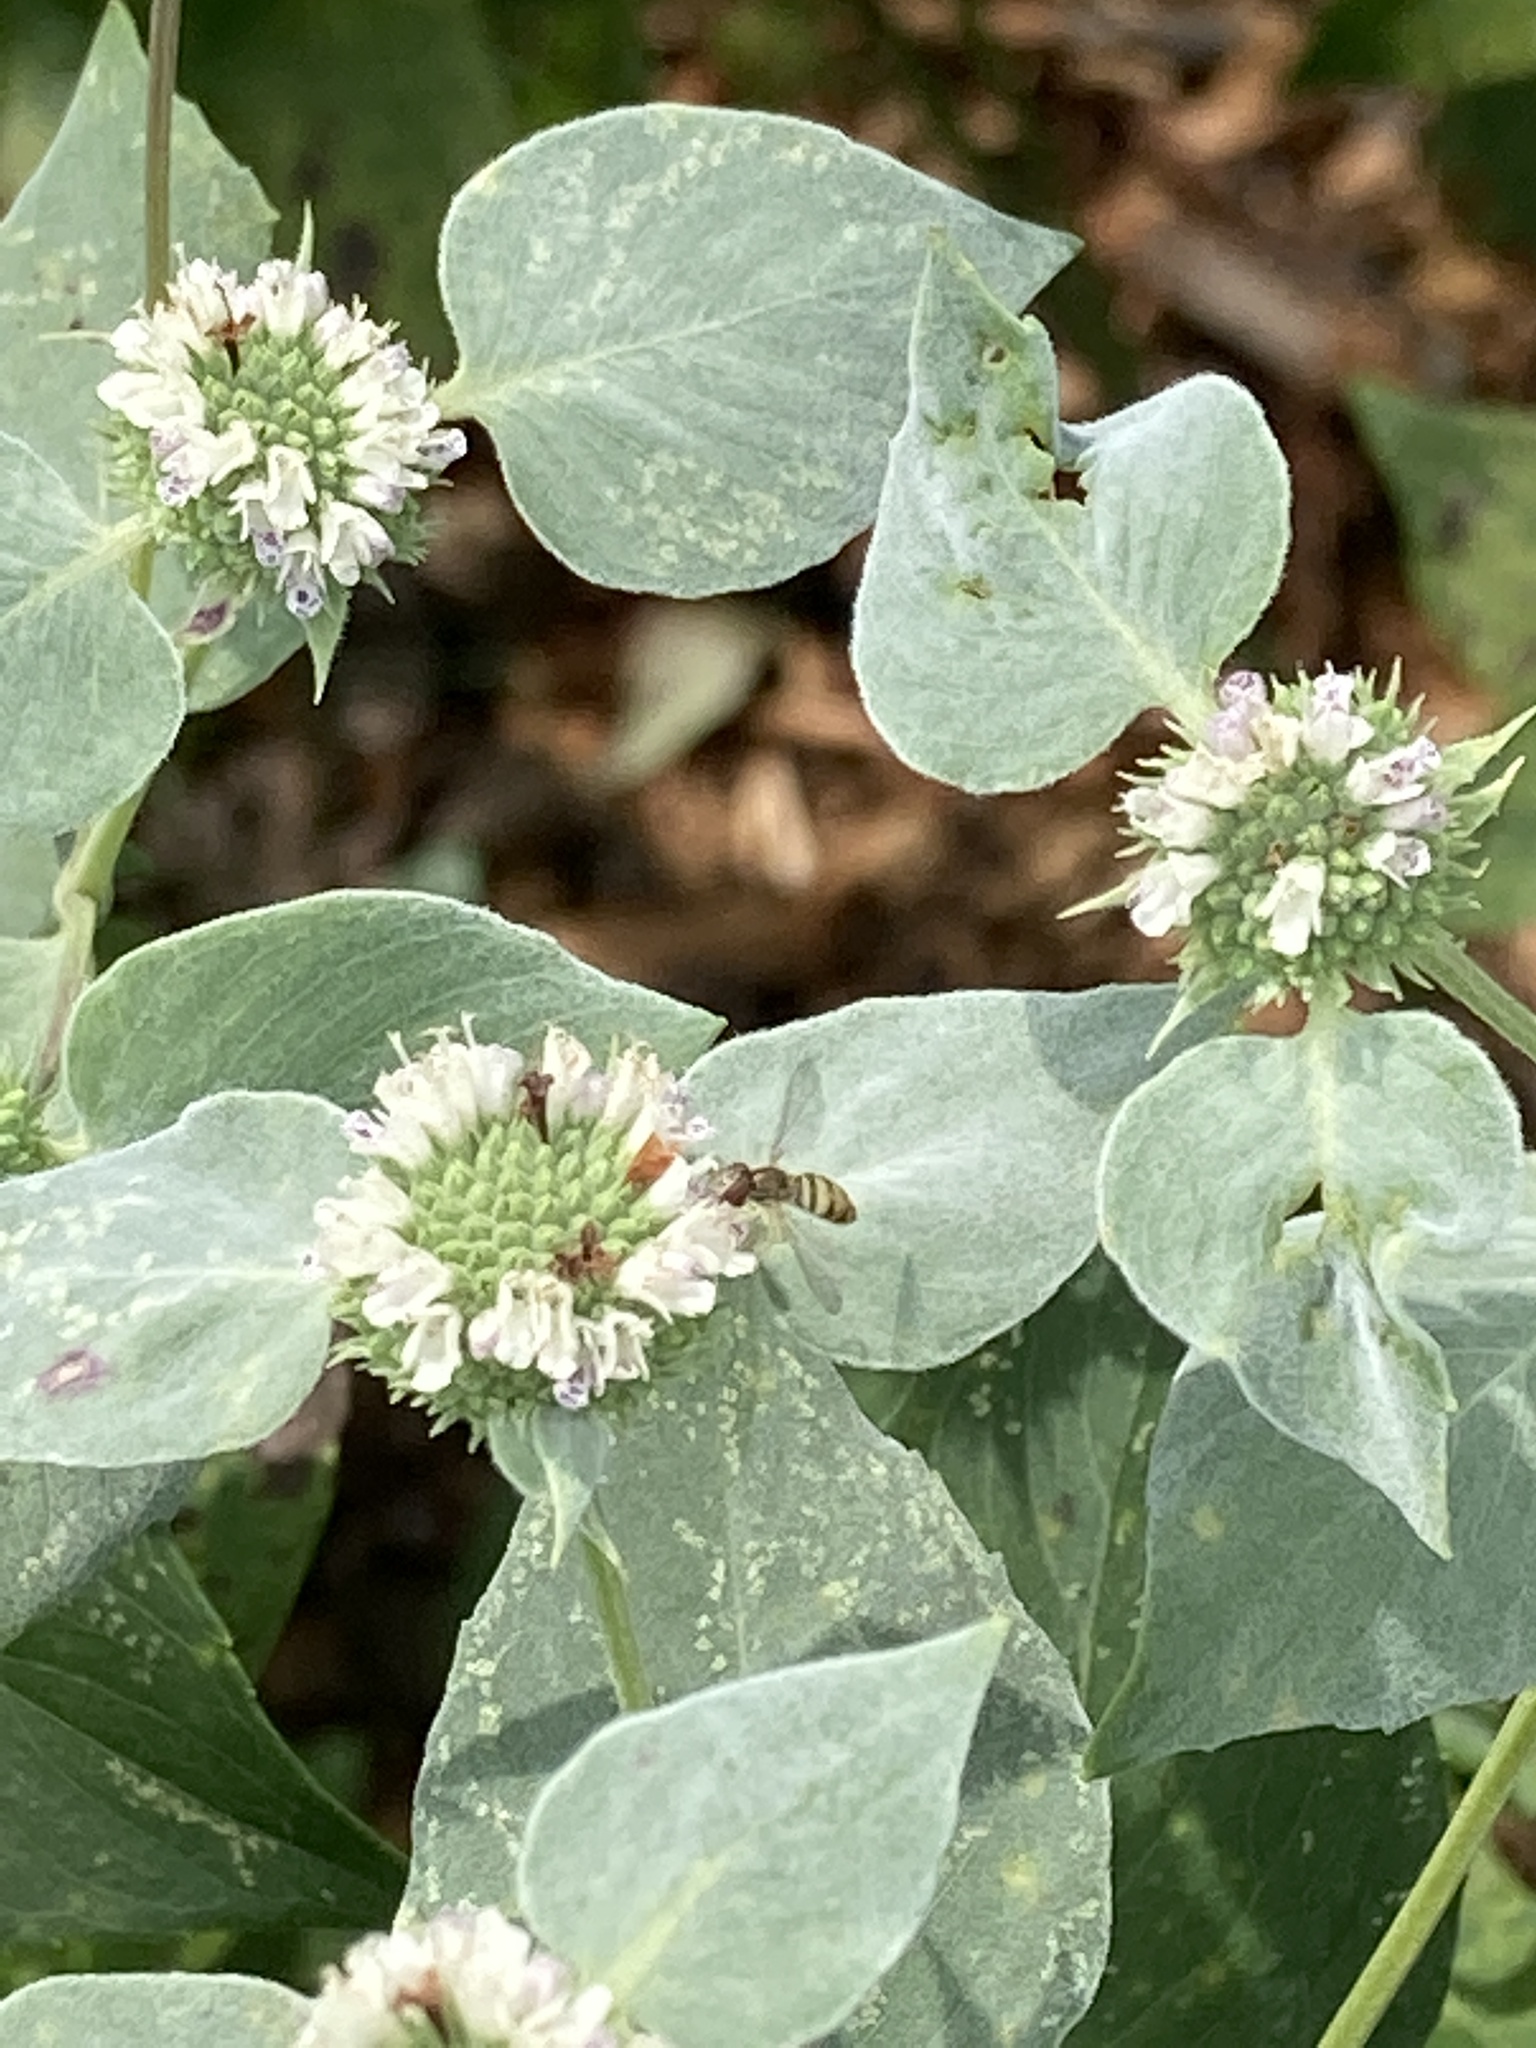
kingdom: Animalia
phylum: Arthropoda
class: Insecta
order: Diptera
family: Syrphidae
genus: Toxomerus
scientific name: Toxomerus marginatus
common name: Syrphid fly
